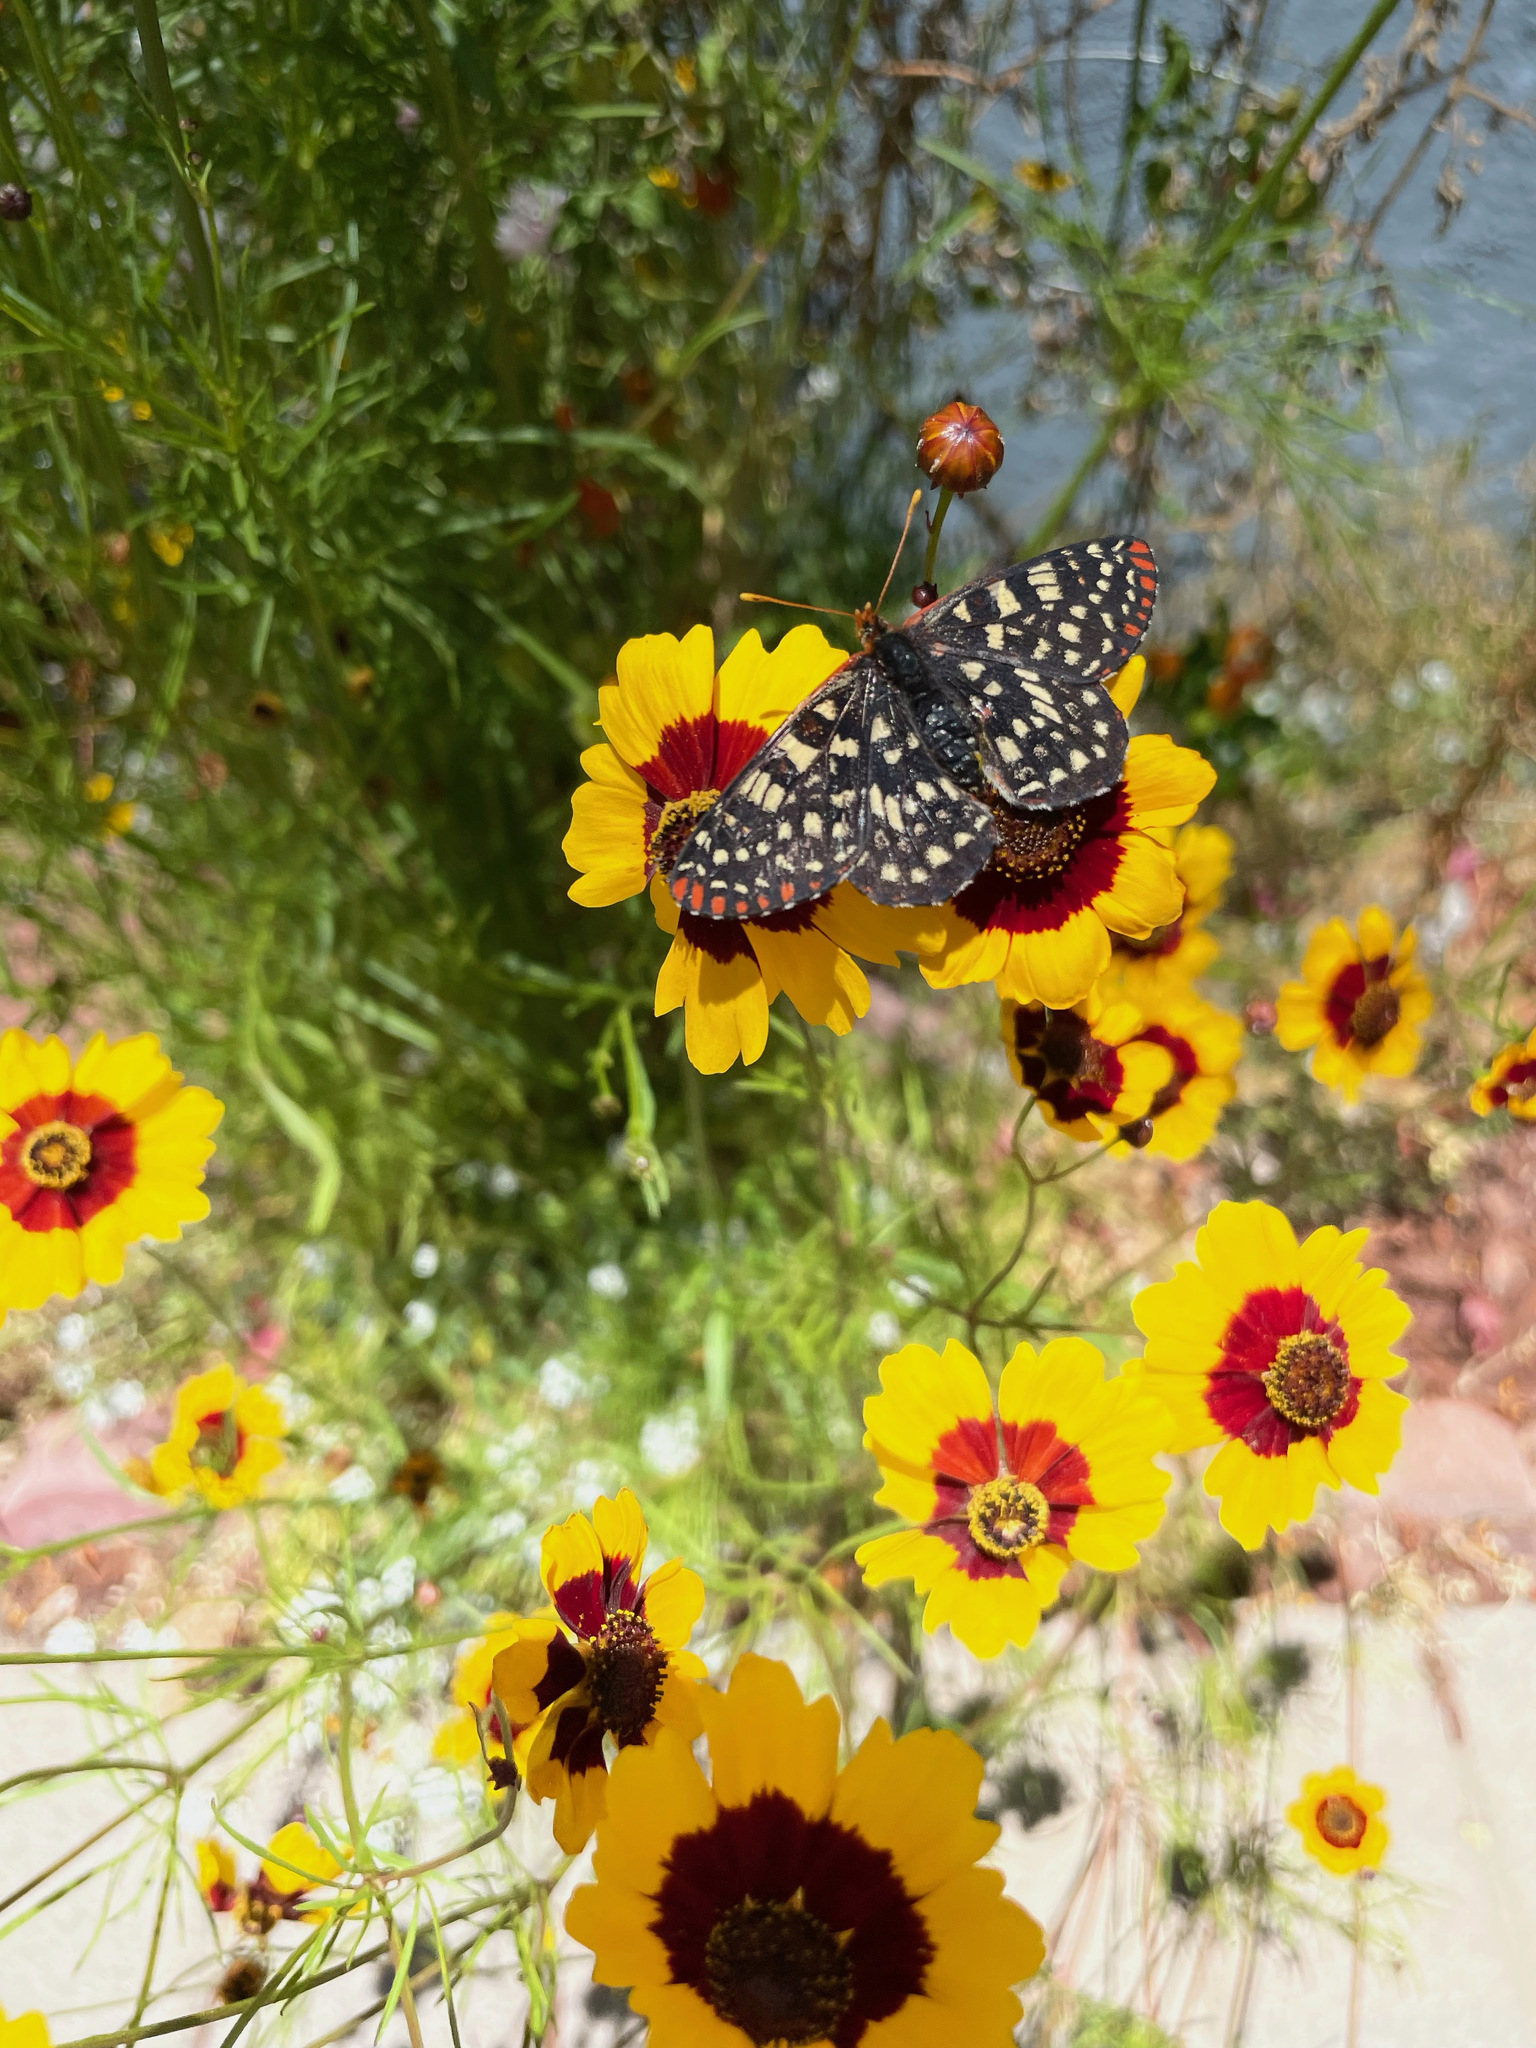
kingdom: Animalia
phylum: Arthropoda
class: Insecta
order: Lepidoptera
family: Nymphalidae
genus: Occidryas
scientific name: Occidryas chalcedona
